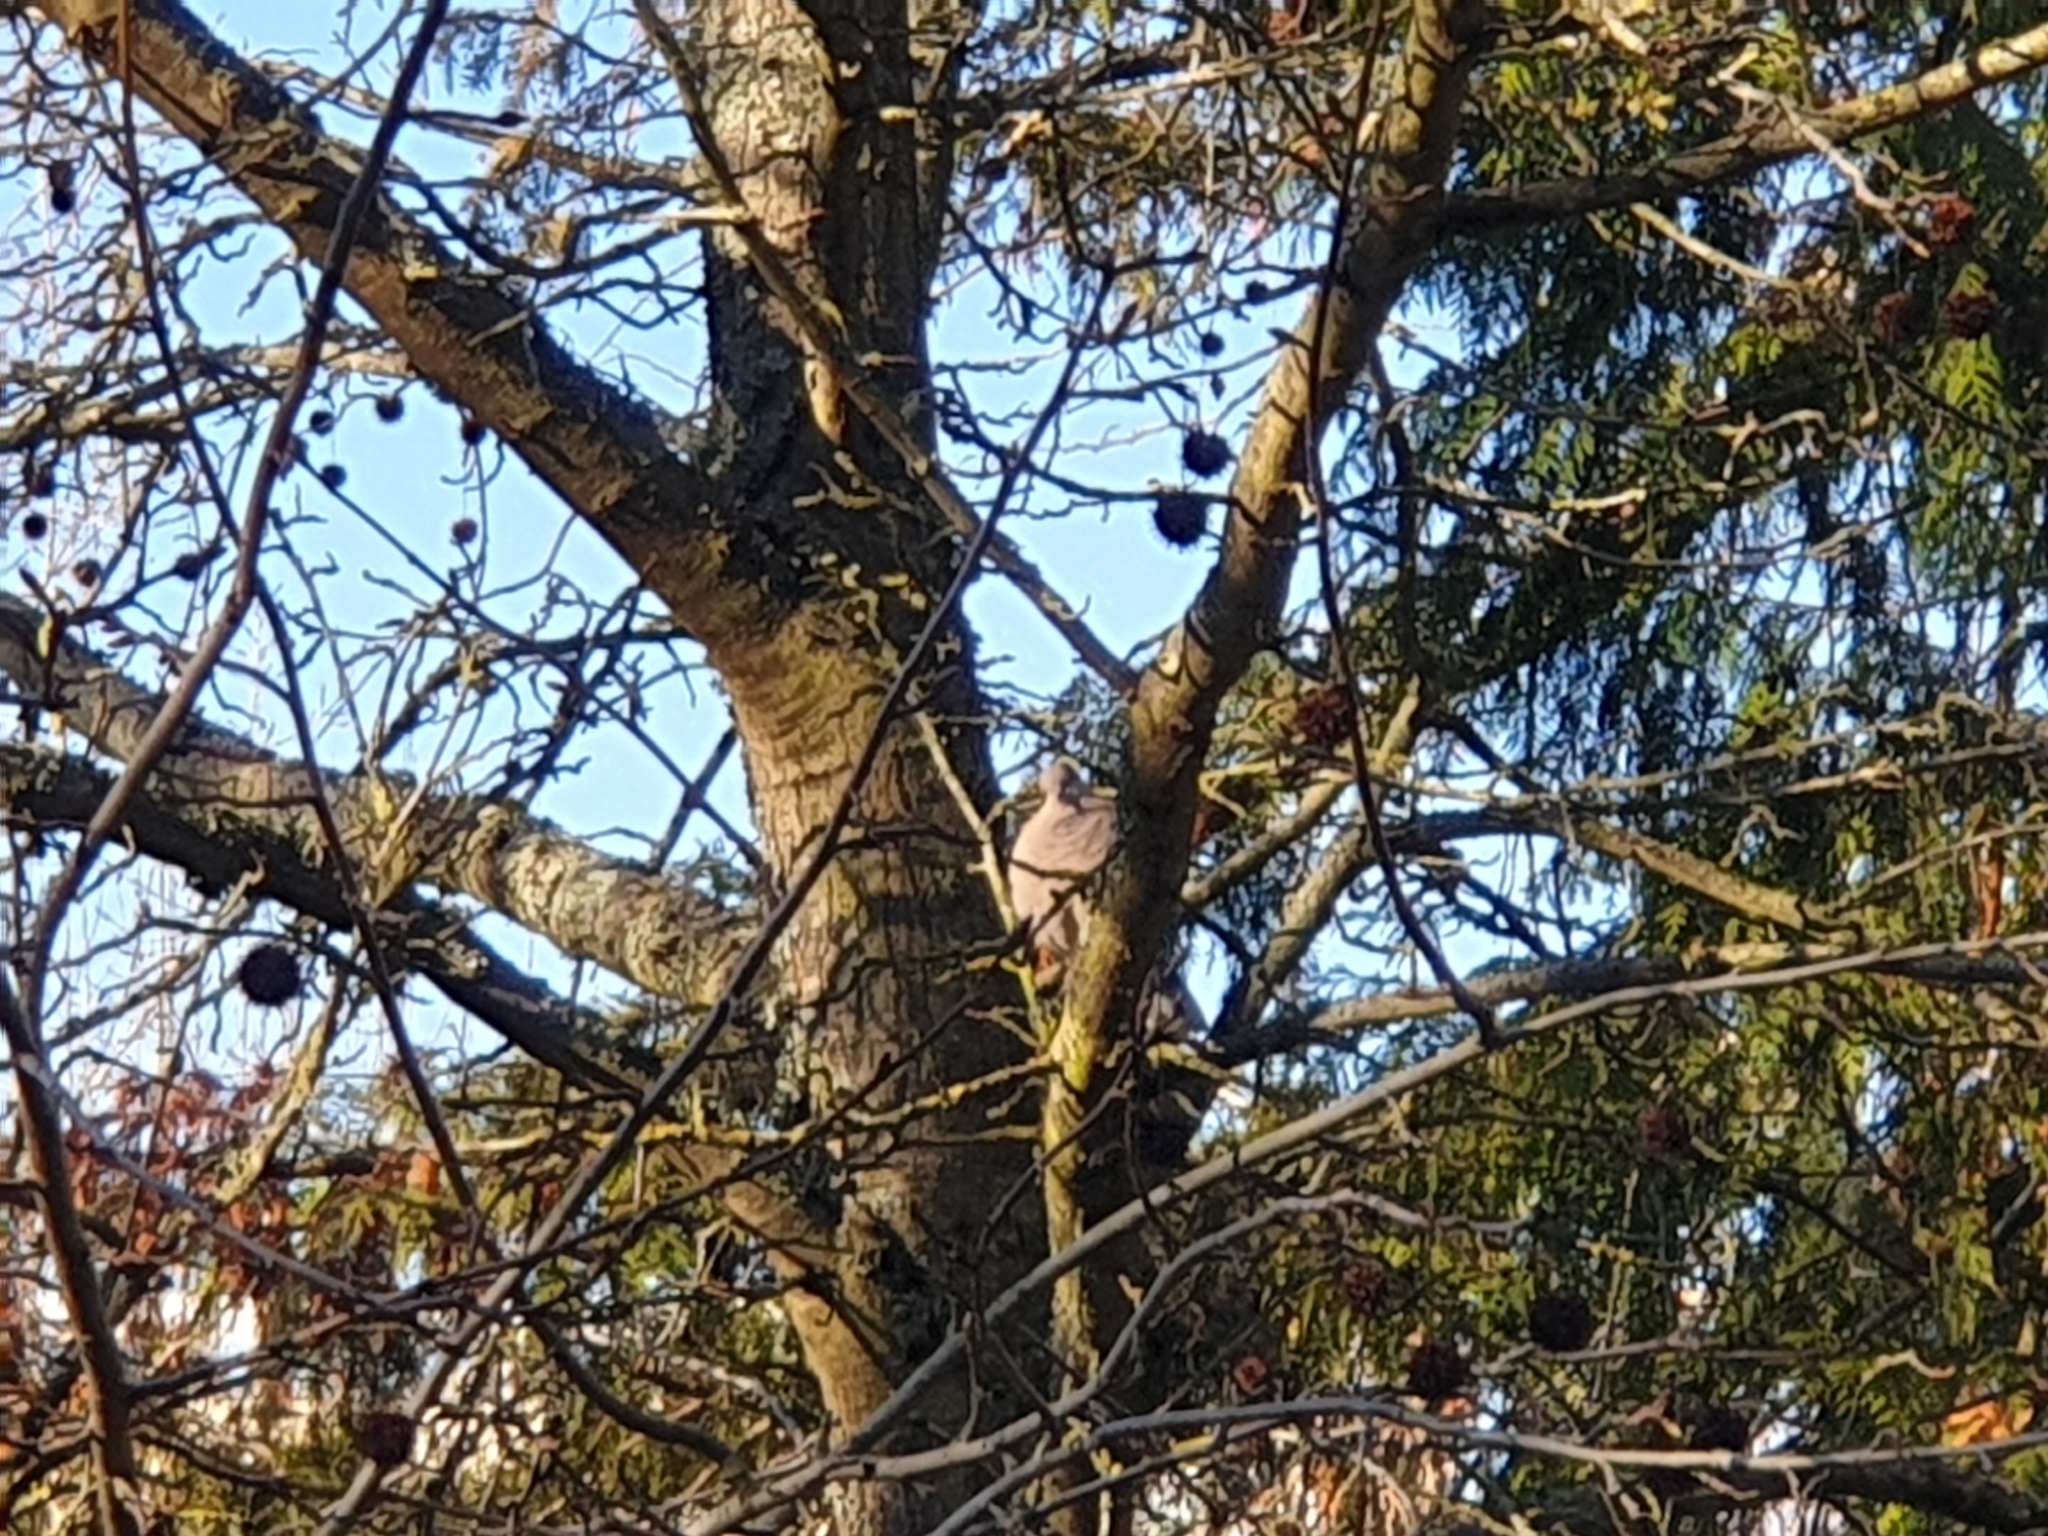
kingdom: Animalia
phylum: Chordata
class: Aves
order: Columbiformes
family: Columbidae
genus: Streptopelia
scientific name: Streptopelia decaocto
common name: Eurasian collared dove
